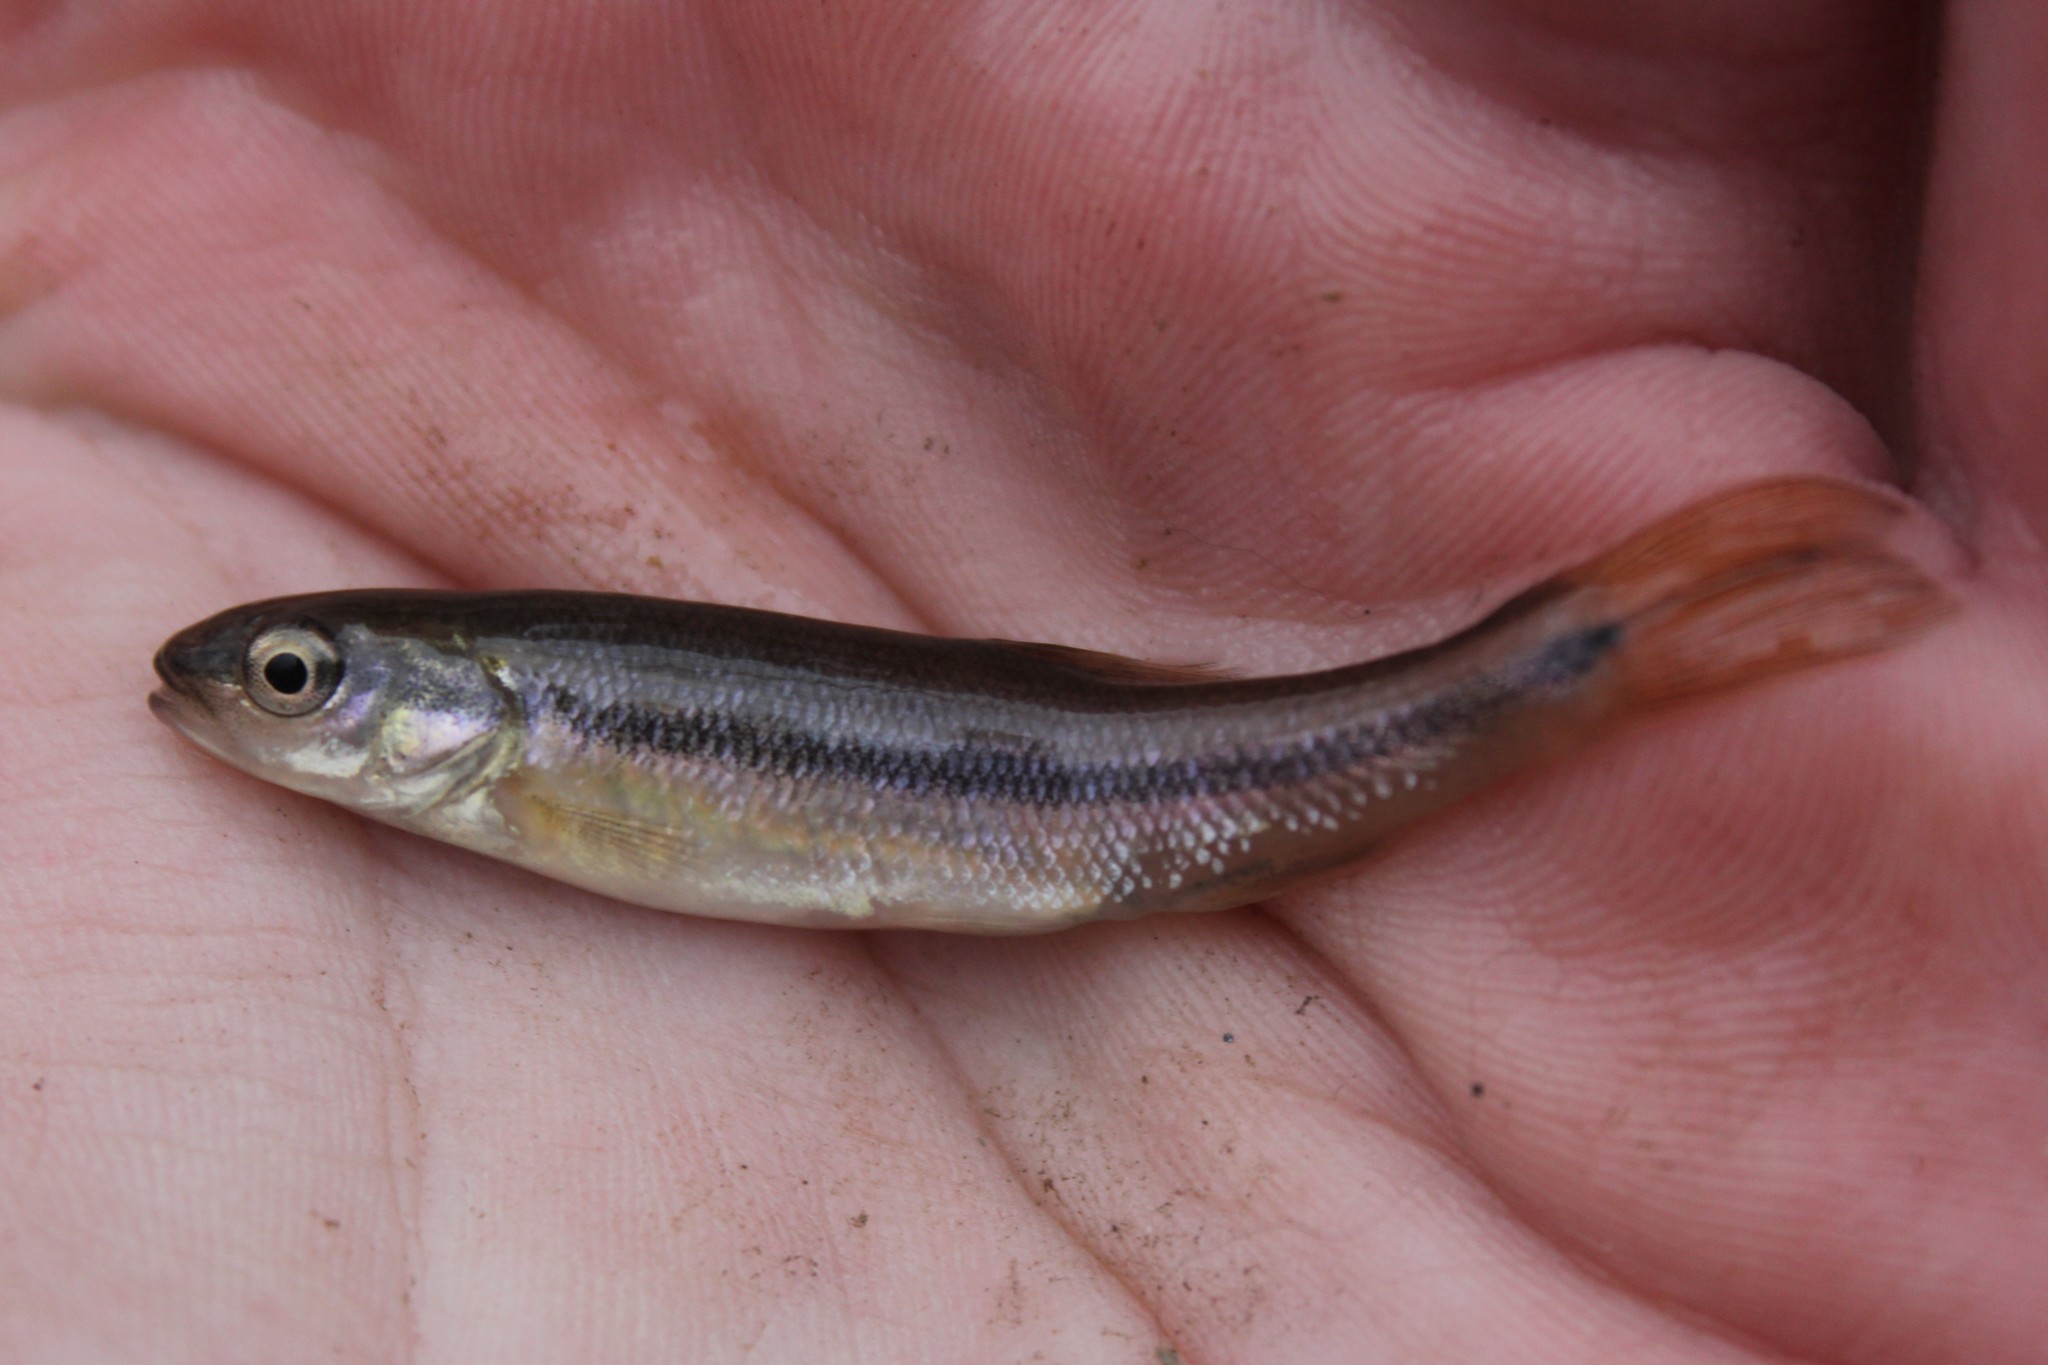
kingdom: Animalia
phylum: Chordata
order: Cypriniformes
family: Cyprinidae
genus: Semotilus
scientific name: Semotilus atromaculatus
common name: Creek chub
